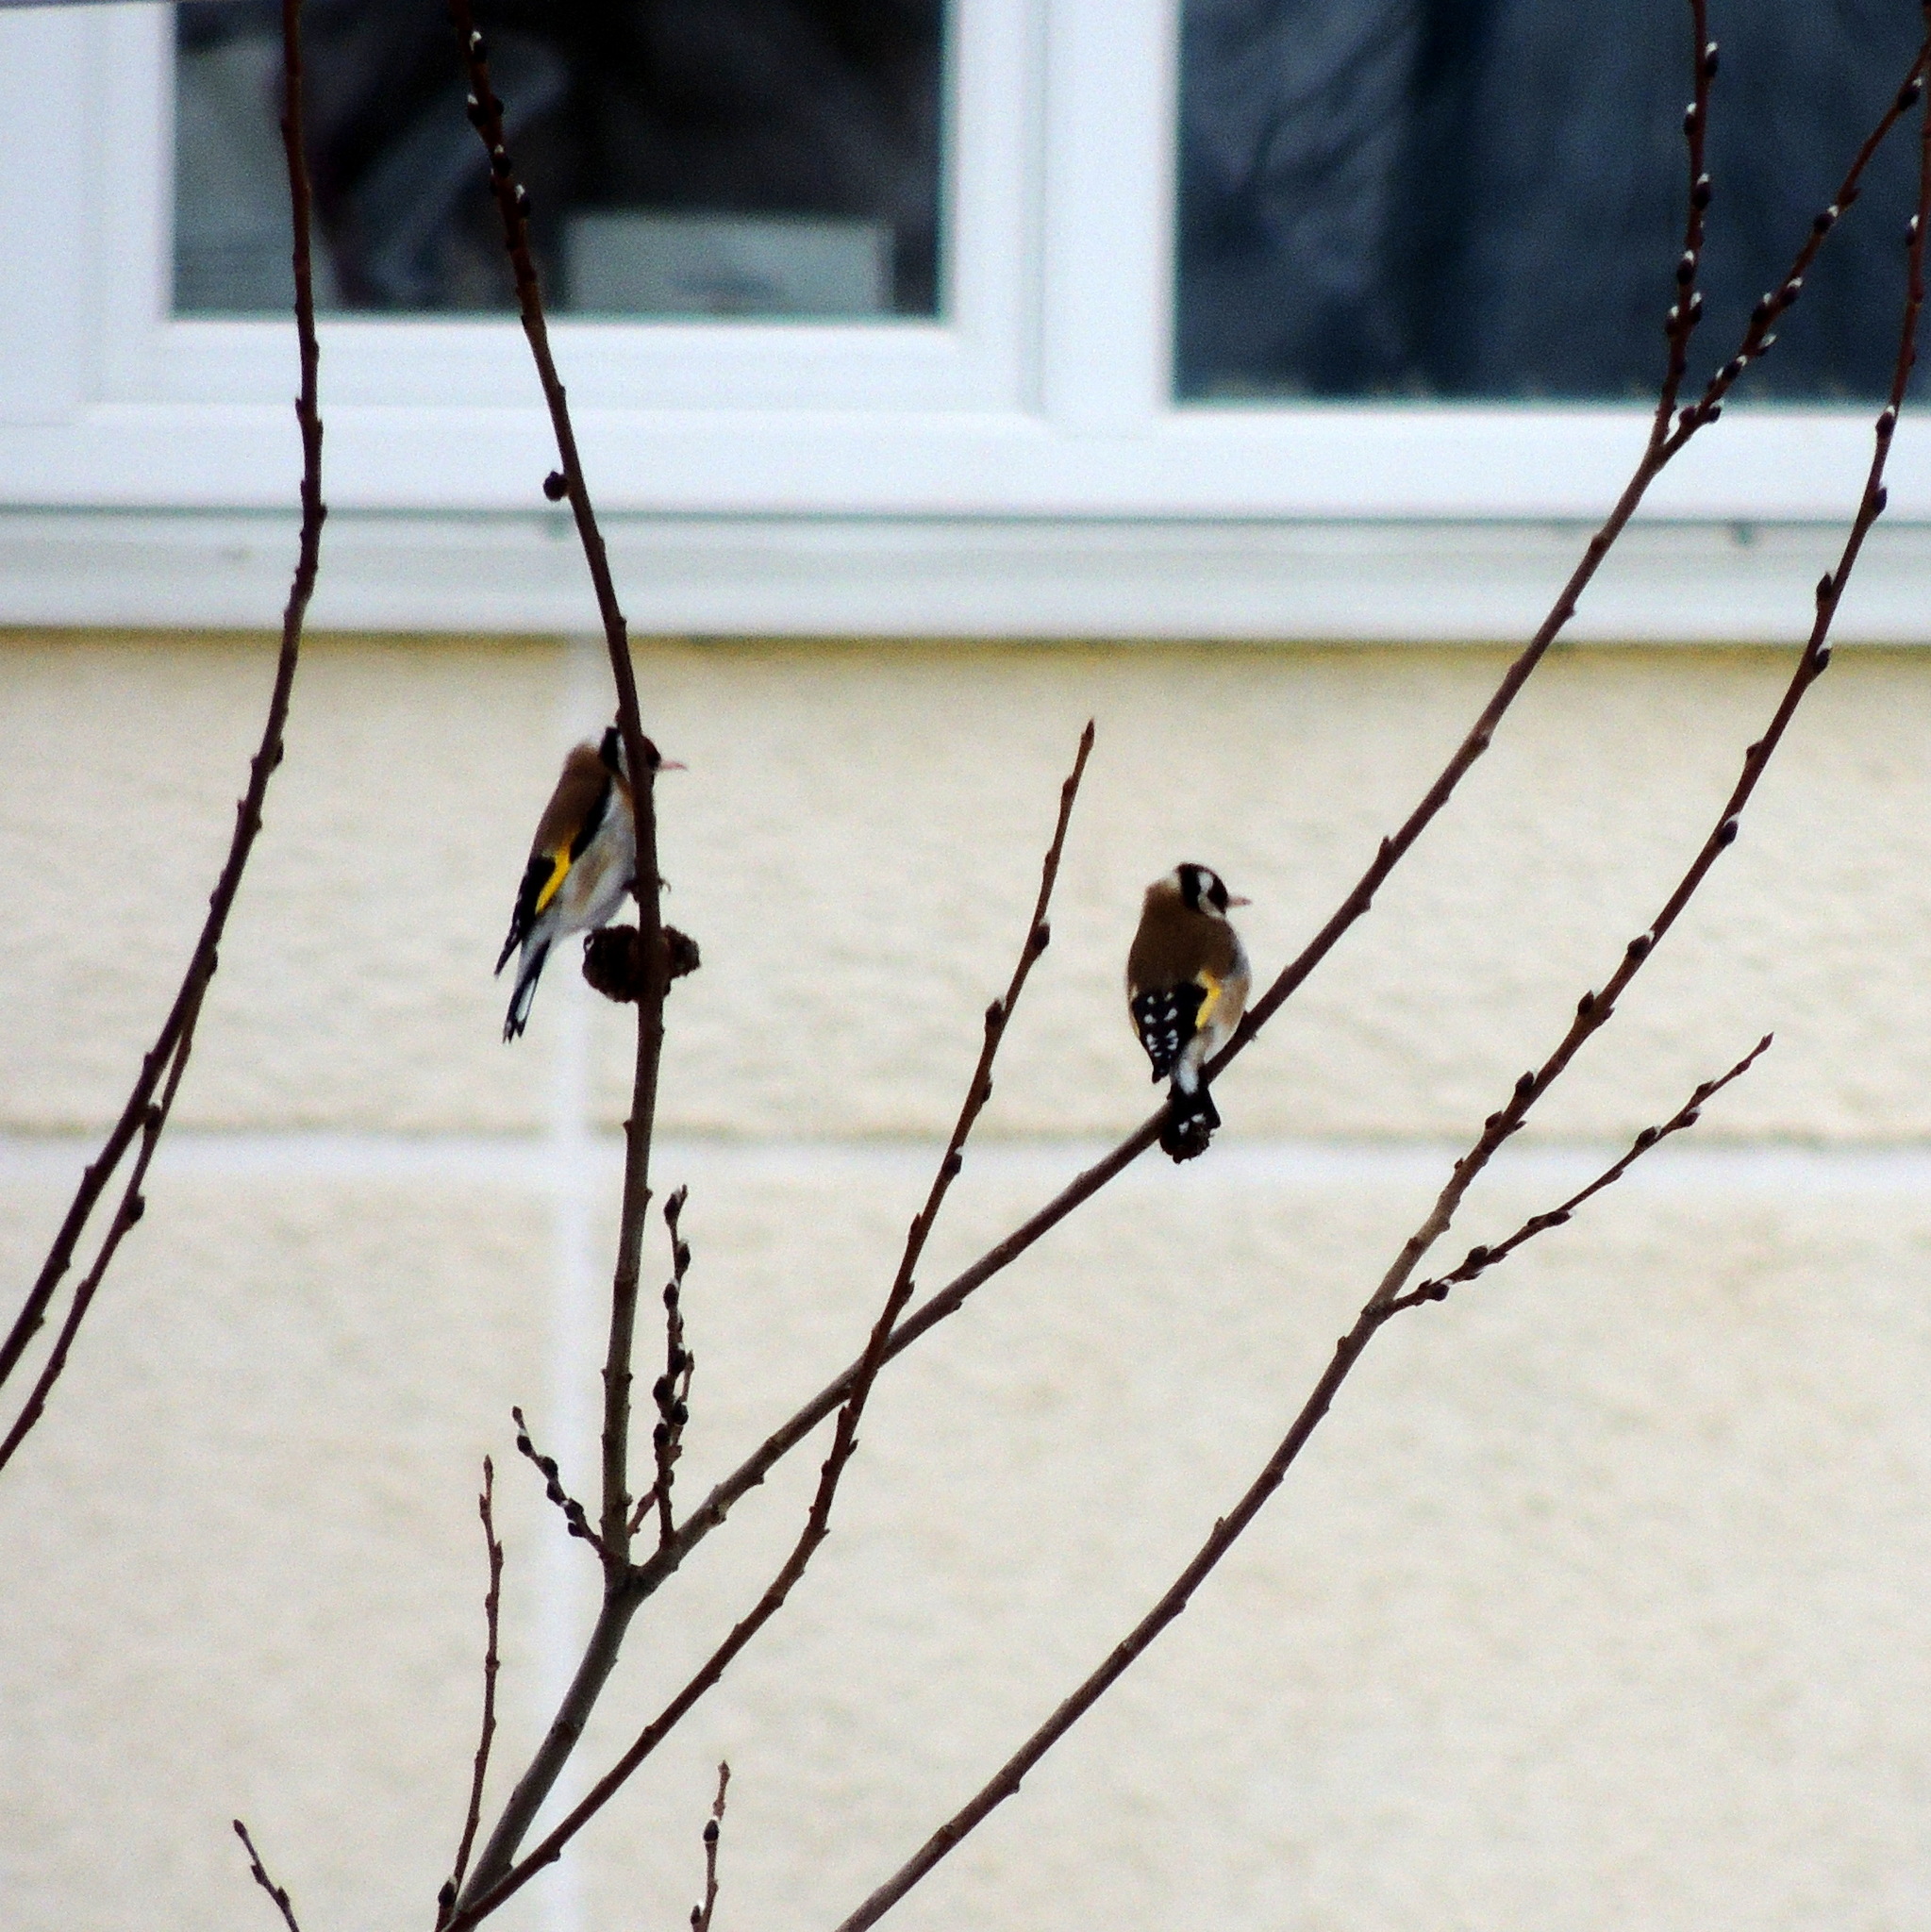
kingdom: Animalia
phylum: Chordata
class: Aves
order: Passeriformes
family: Fringillidae
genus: Carduelis
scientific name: Carduelis carduelis
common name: European goldfinch
